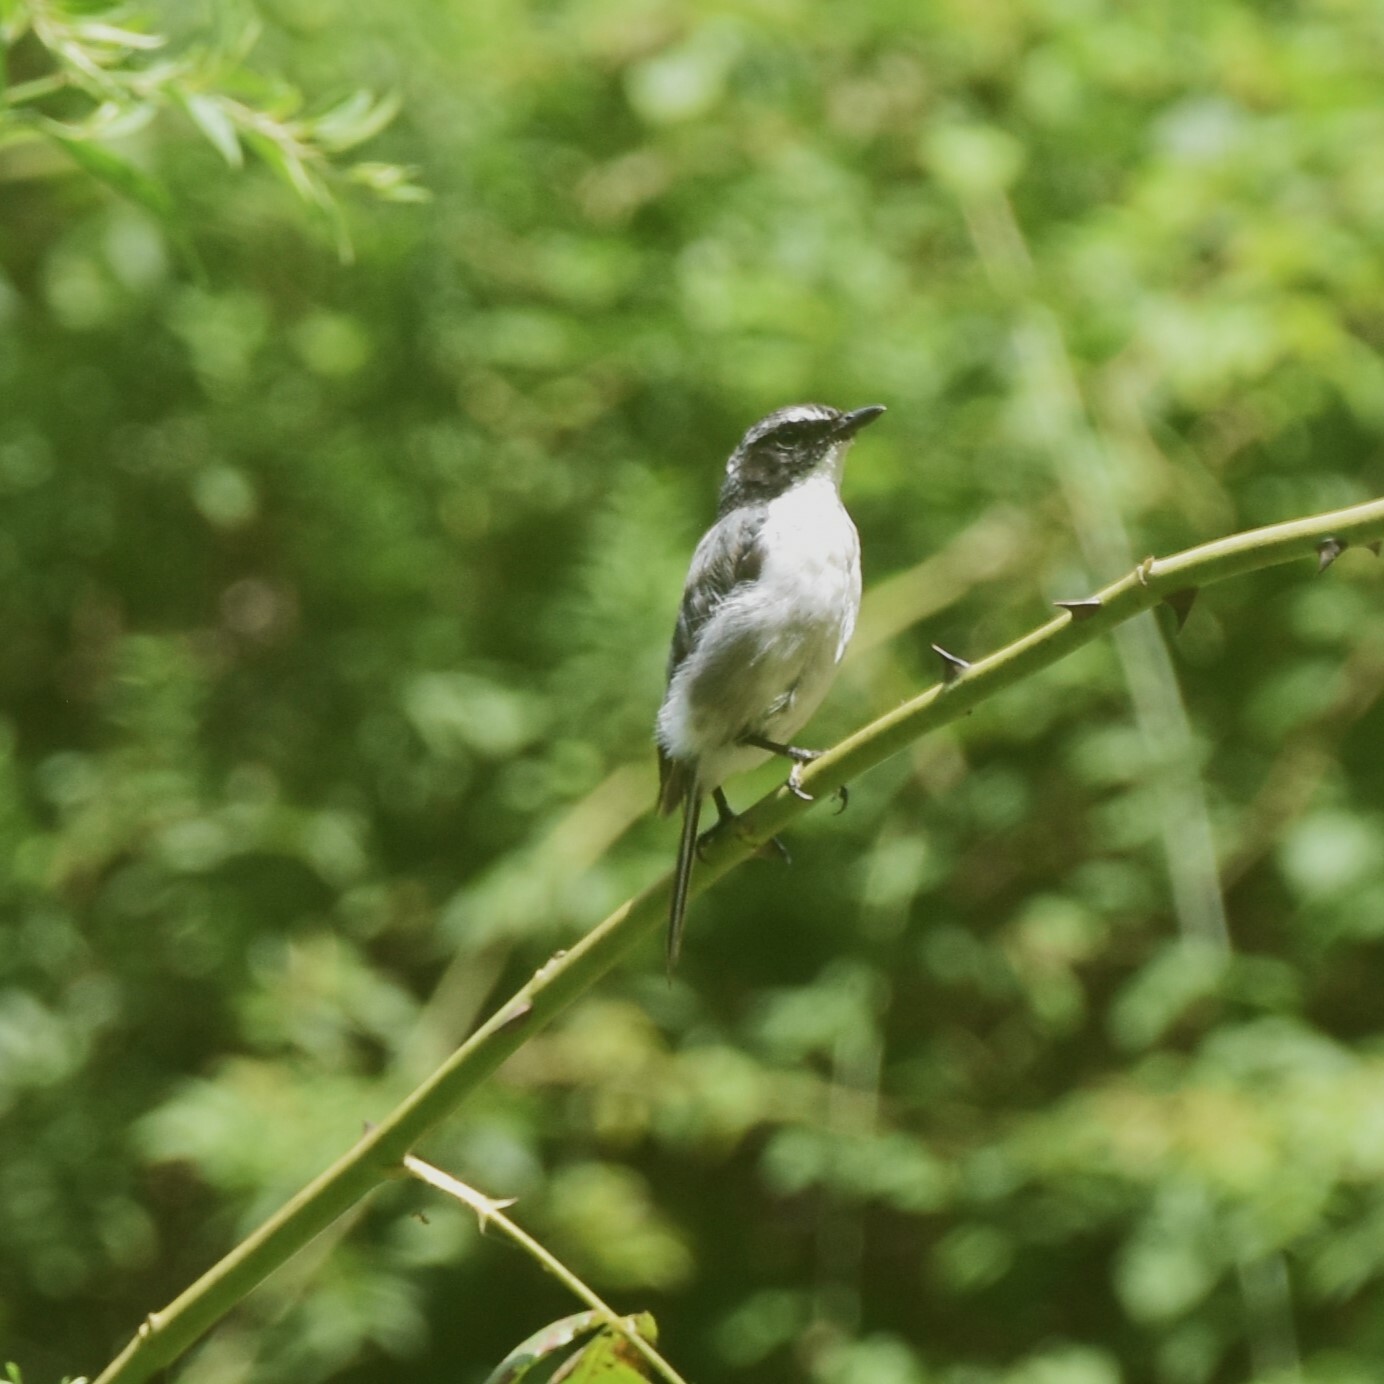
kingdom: Animalia
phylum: Chordata
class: Aves
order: Passeriformes
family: Muscicapidae
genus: Saxicola
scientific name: Saxicola ferreus
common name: Grey bush chat
